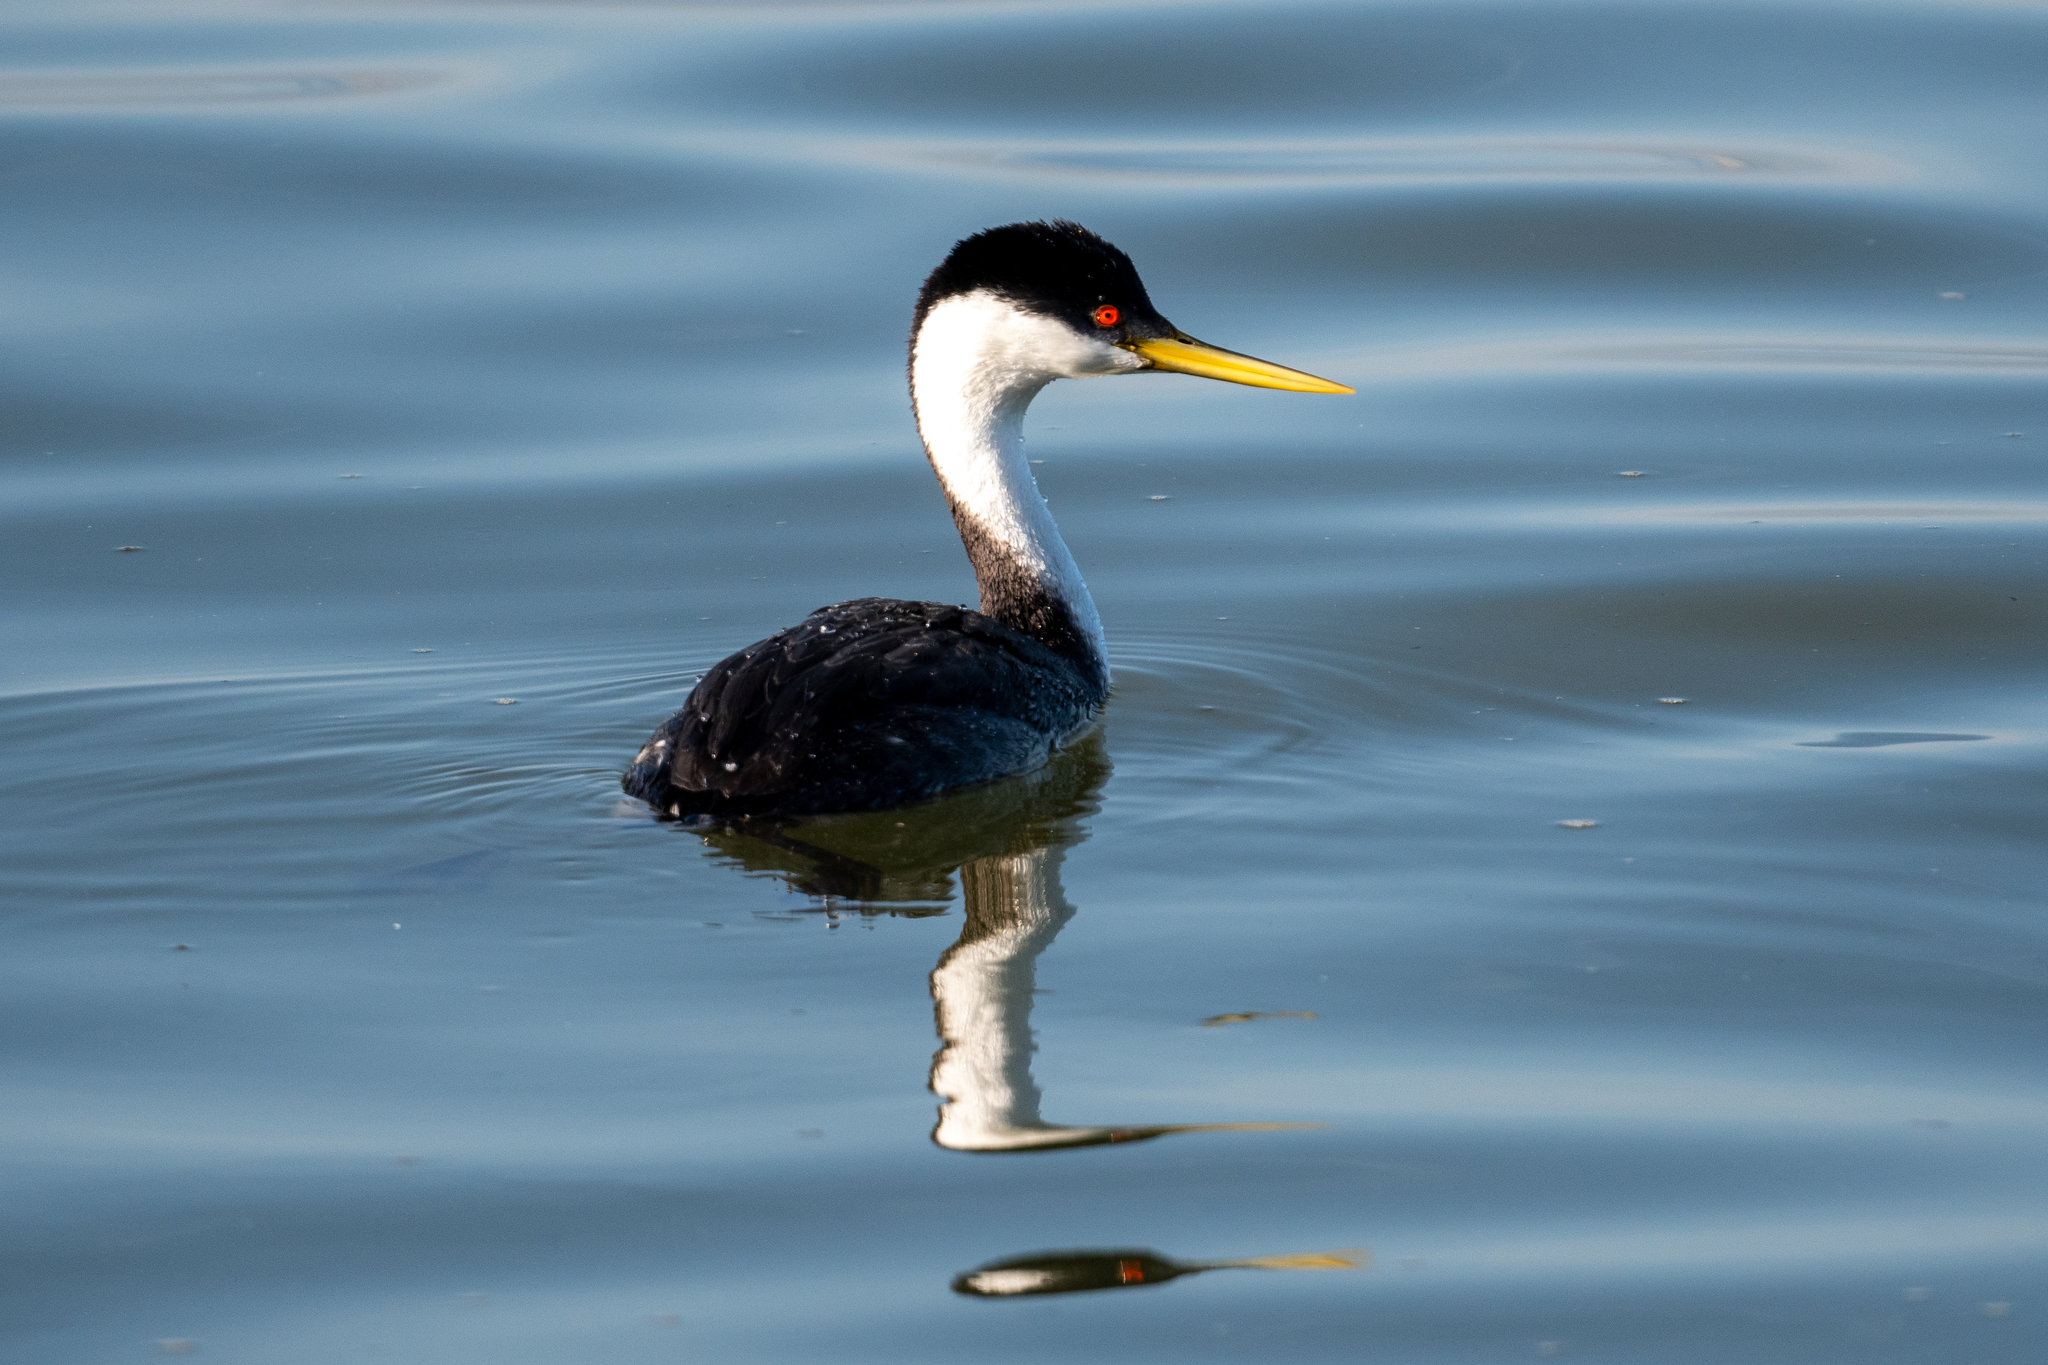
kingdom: Animalia
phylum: Chordata
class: Aves
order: Podicipediformes
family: Podicipedidae
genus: Aechmophorus
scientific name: Aechmophorus occidentalis
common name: Western grebe
